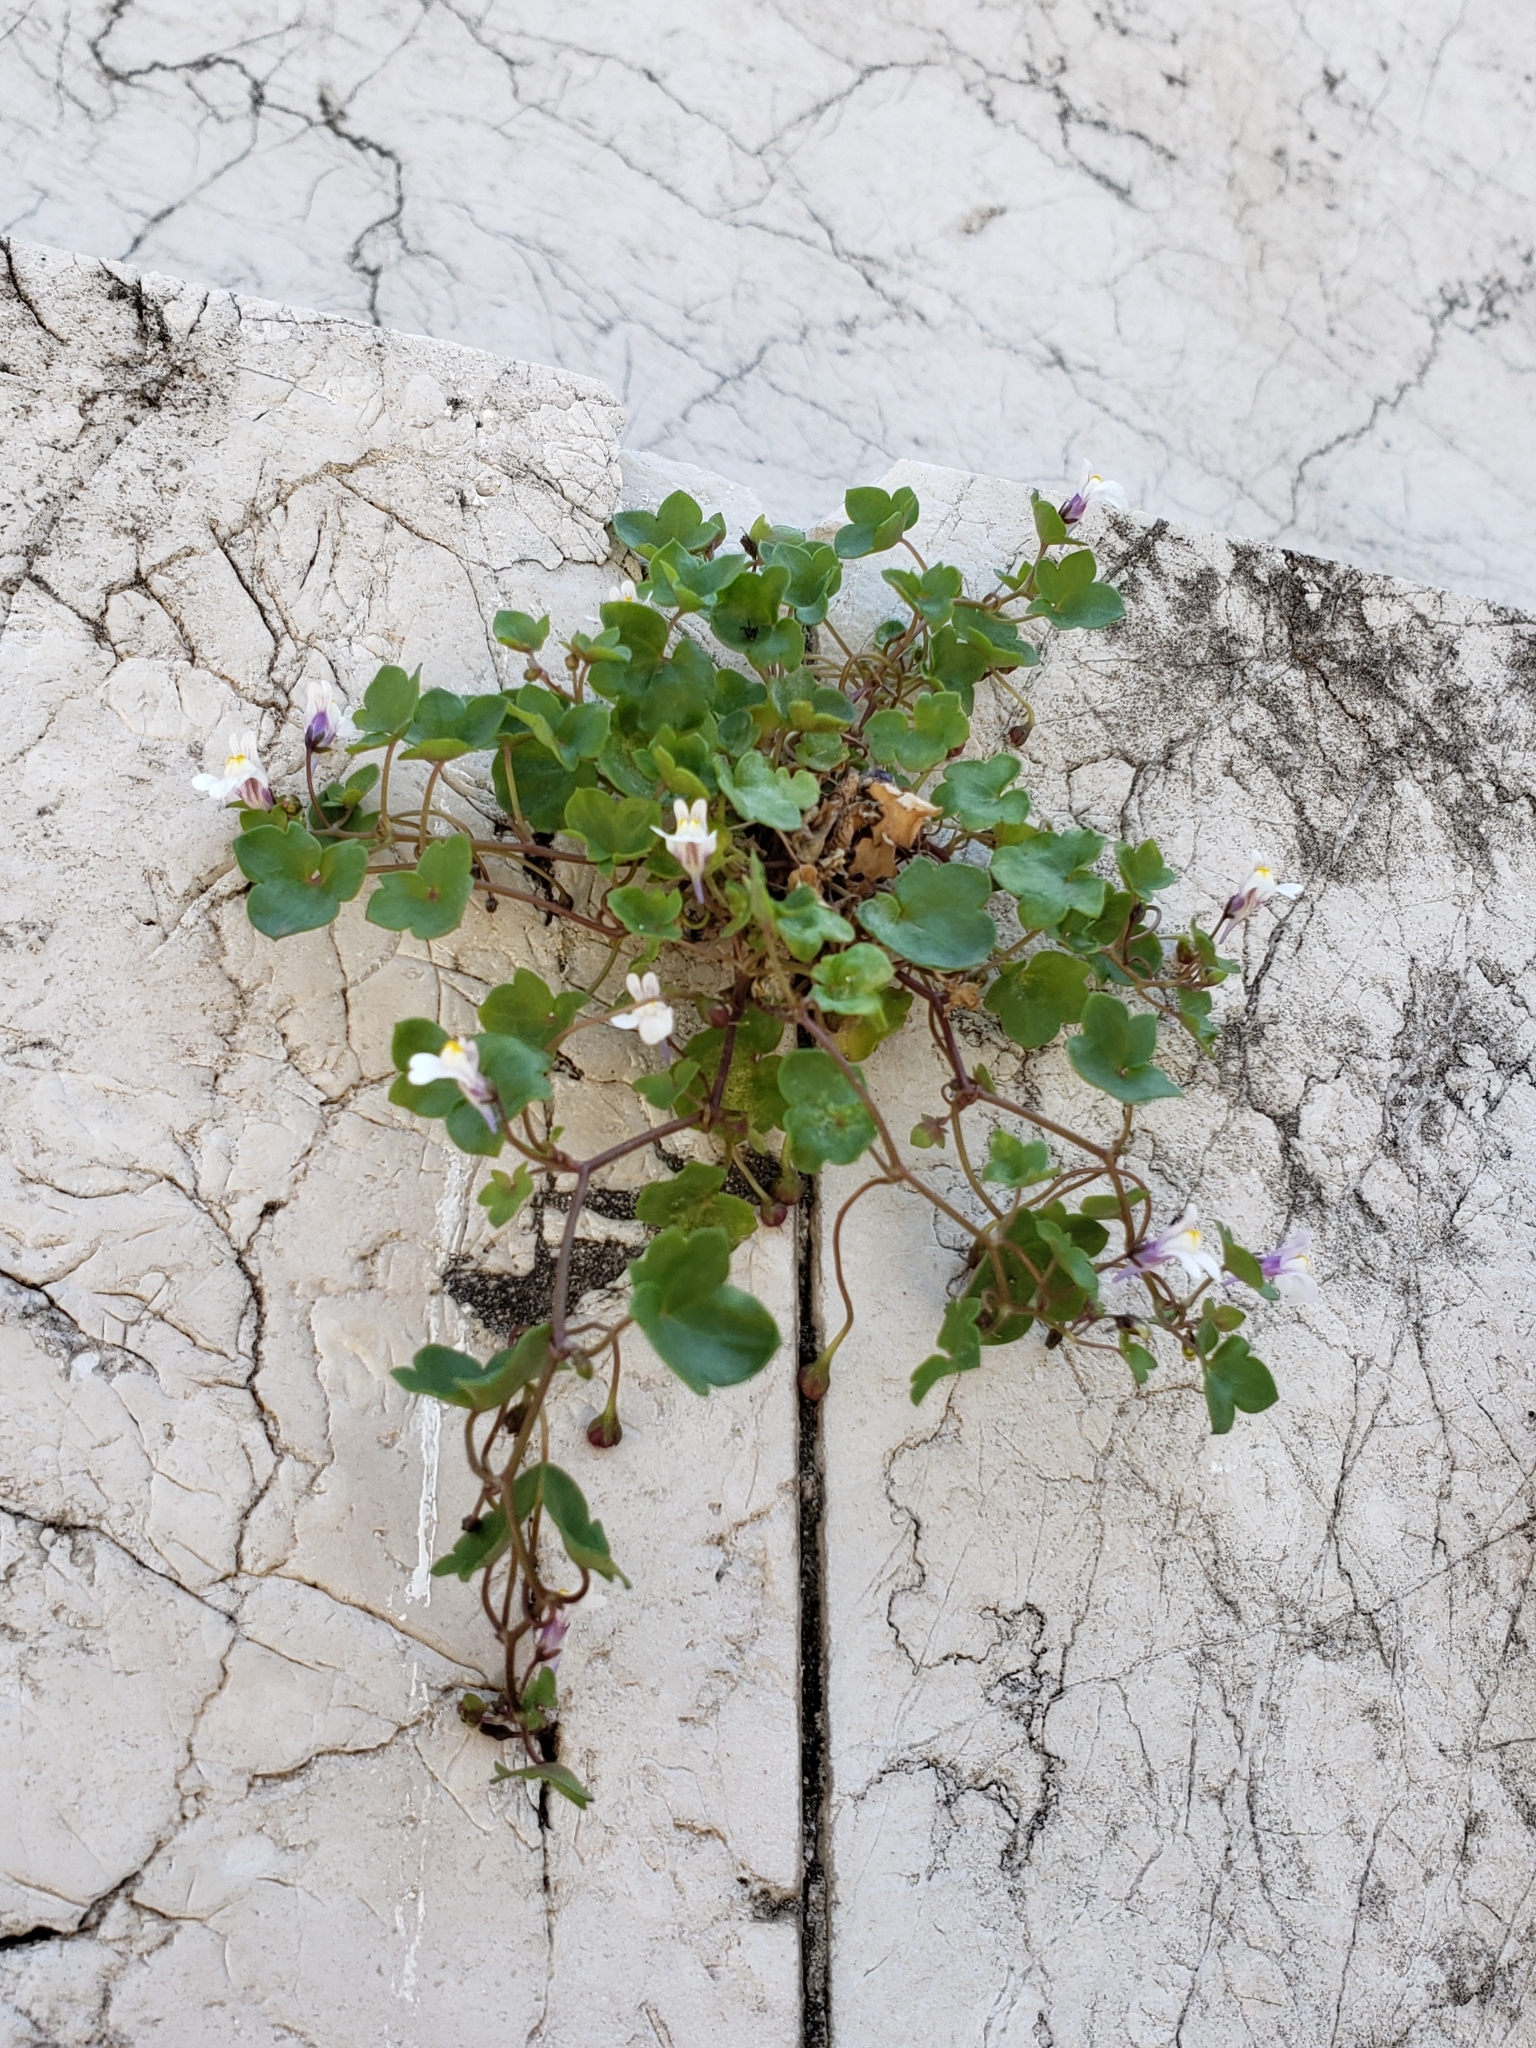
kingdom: Plantae
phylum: Tracheophyta
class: Magnoliopsida
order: Lamiales
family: Plantaginaceae
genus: Cymbalaria
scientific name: Cymbalaria muralis
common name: Ivy-leaved toadflax
